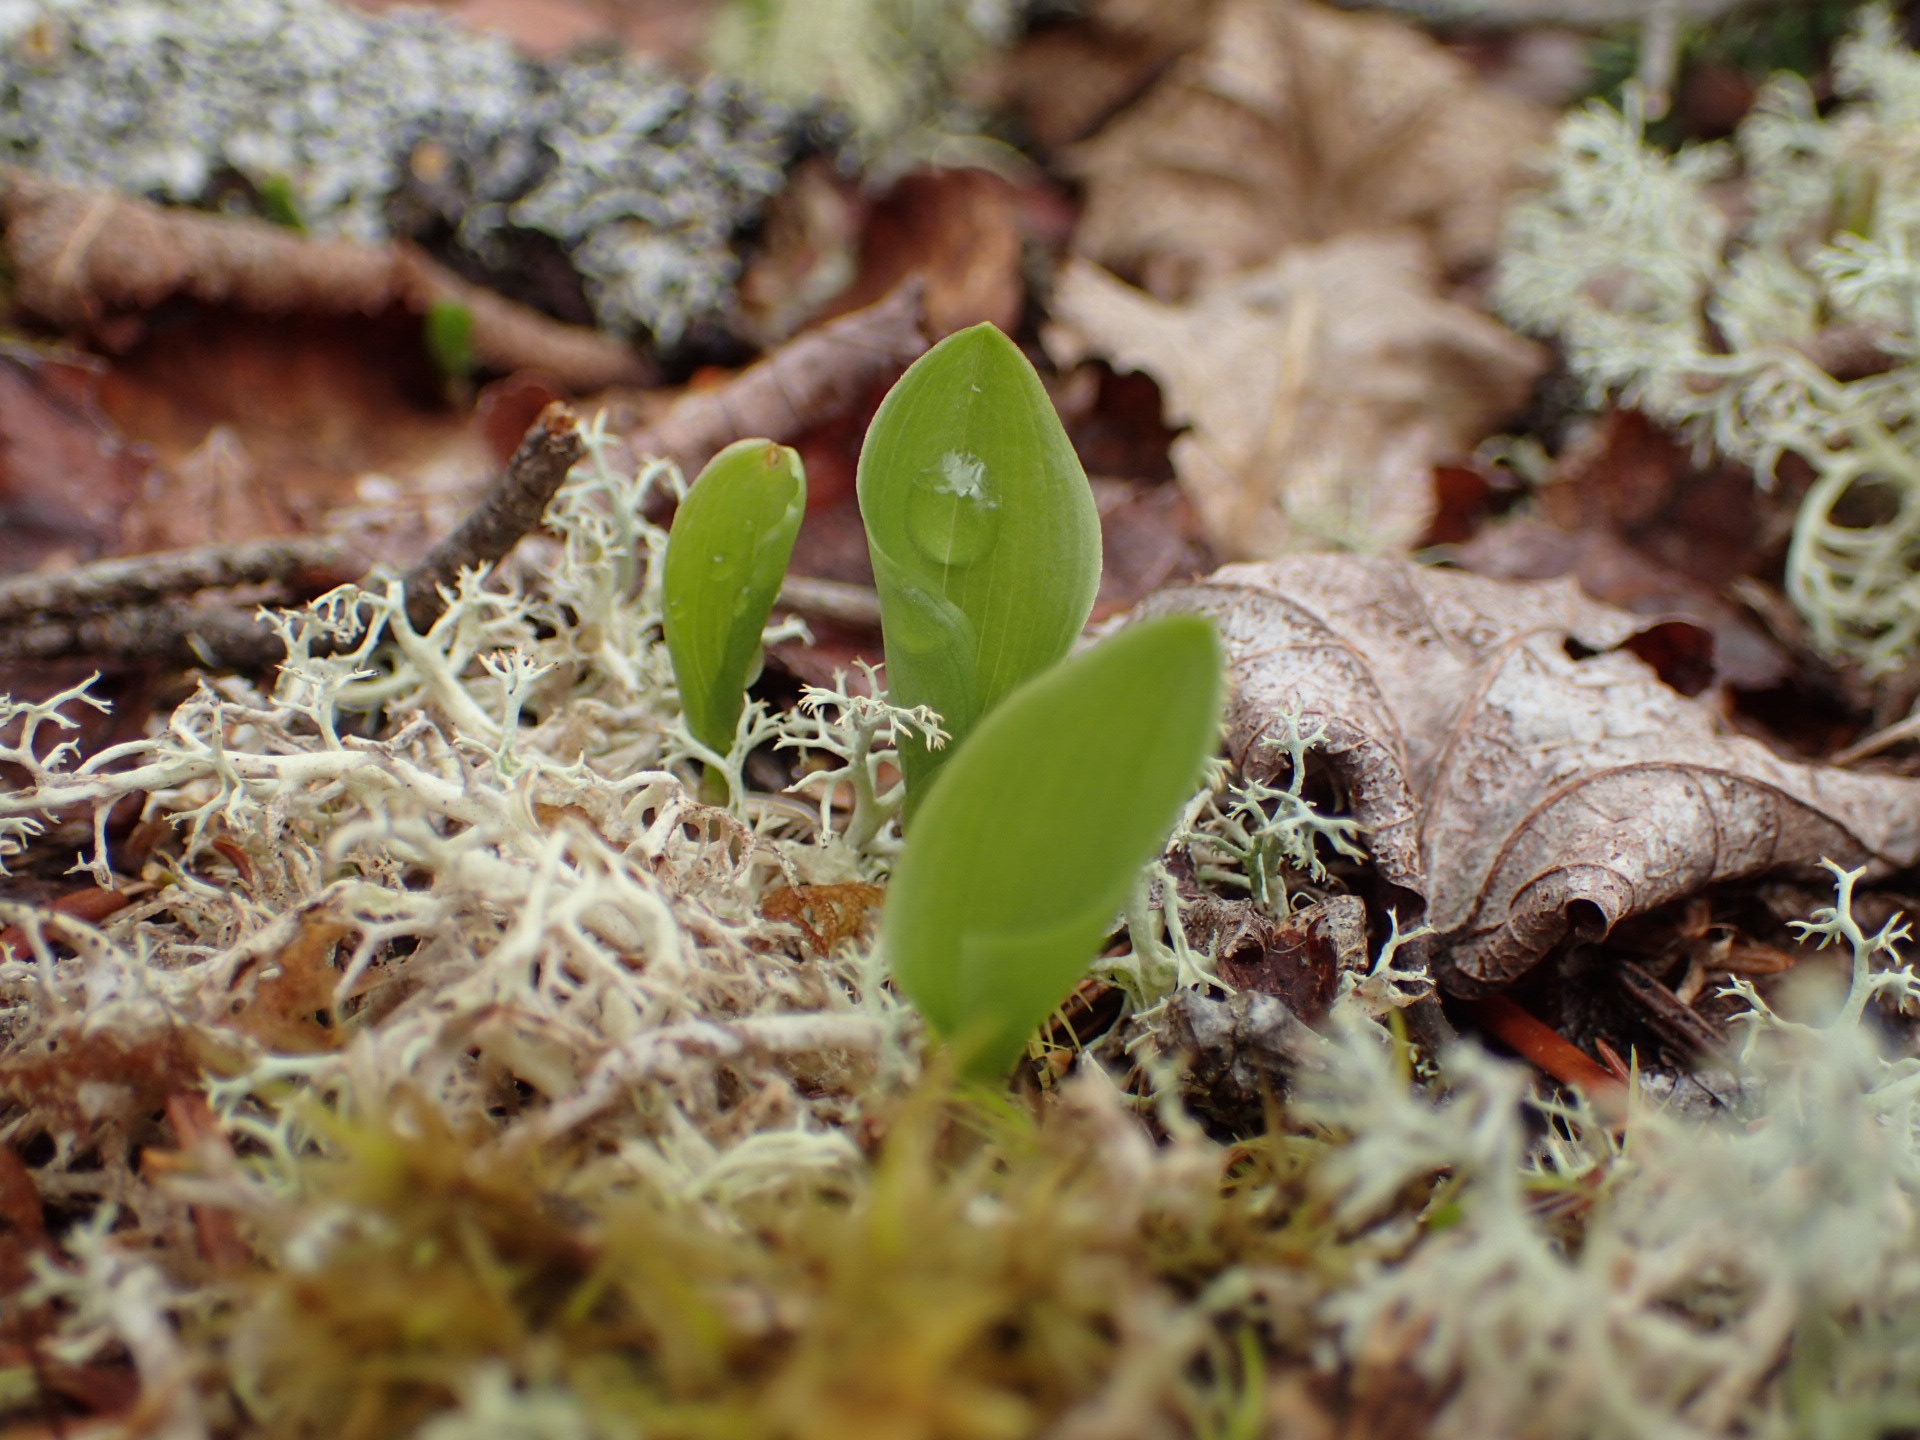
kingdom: Plantae
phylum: Tracheophyta
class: Liliopsida
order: Asparagales
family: Asparagaceae
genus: Maianthemum
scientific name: Maianthemum canadense
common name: False lily-of-the-valley
